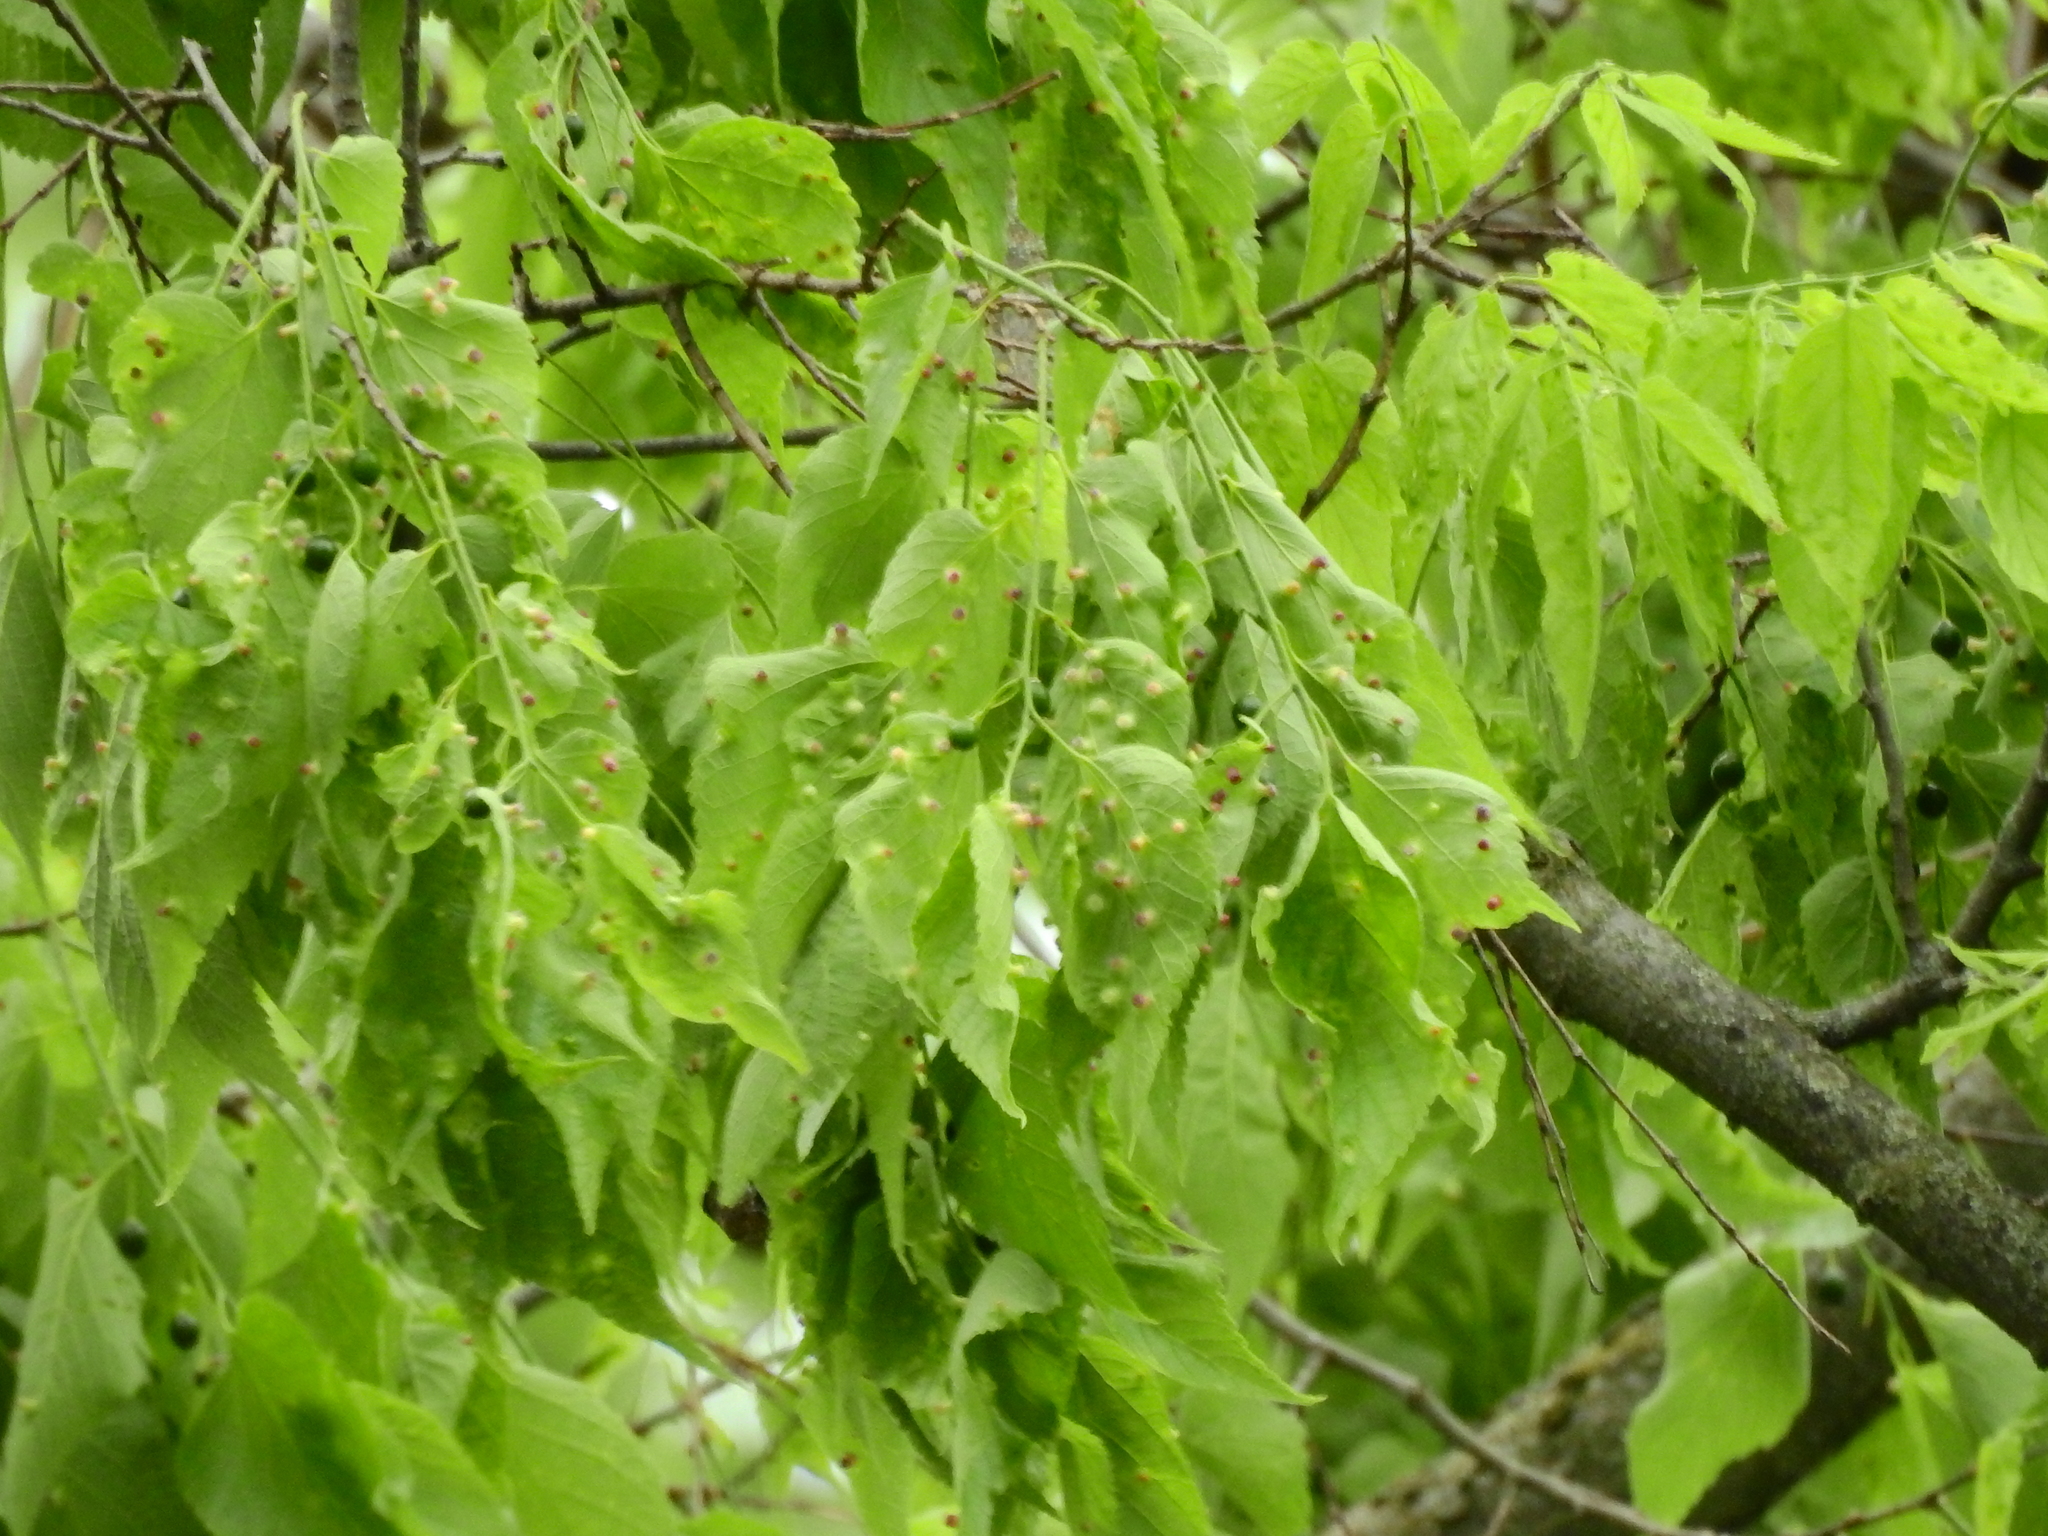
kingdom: Animalia
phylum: Arthropoda
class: Insecta
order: Hemiptera
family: Aphalaridae
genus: Pachypsylla
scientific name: Pachypsylla celtidismamma
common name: Hackberry nipplegall psyllid
